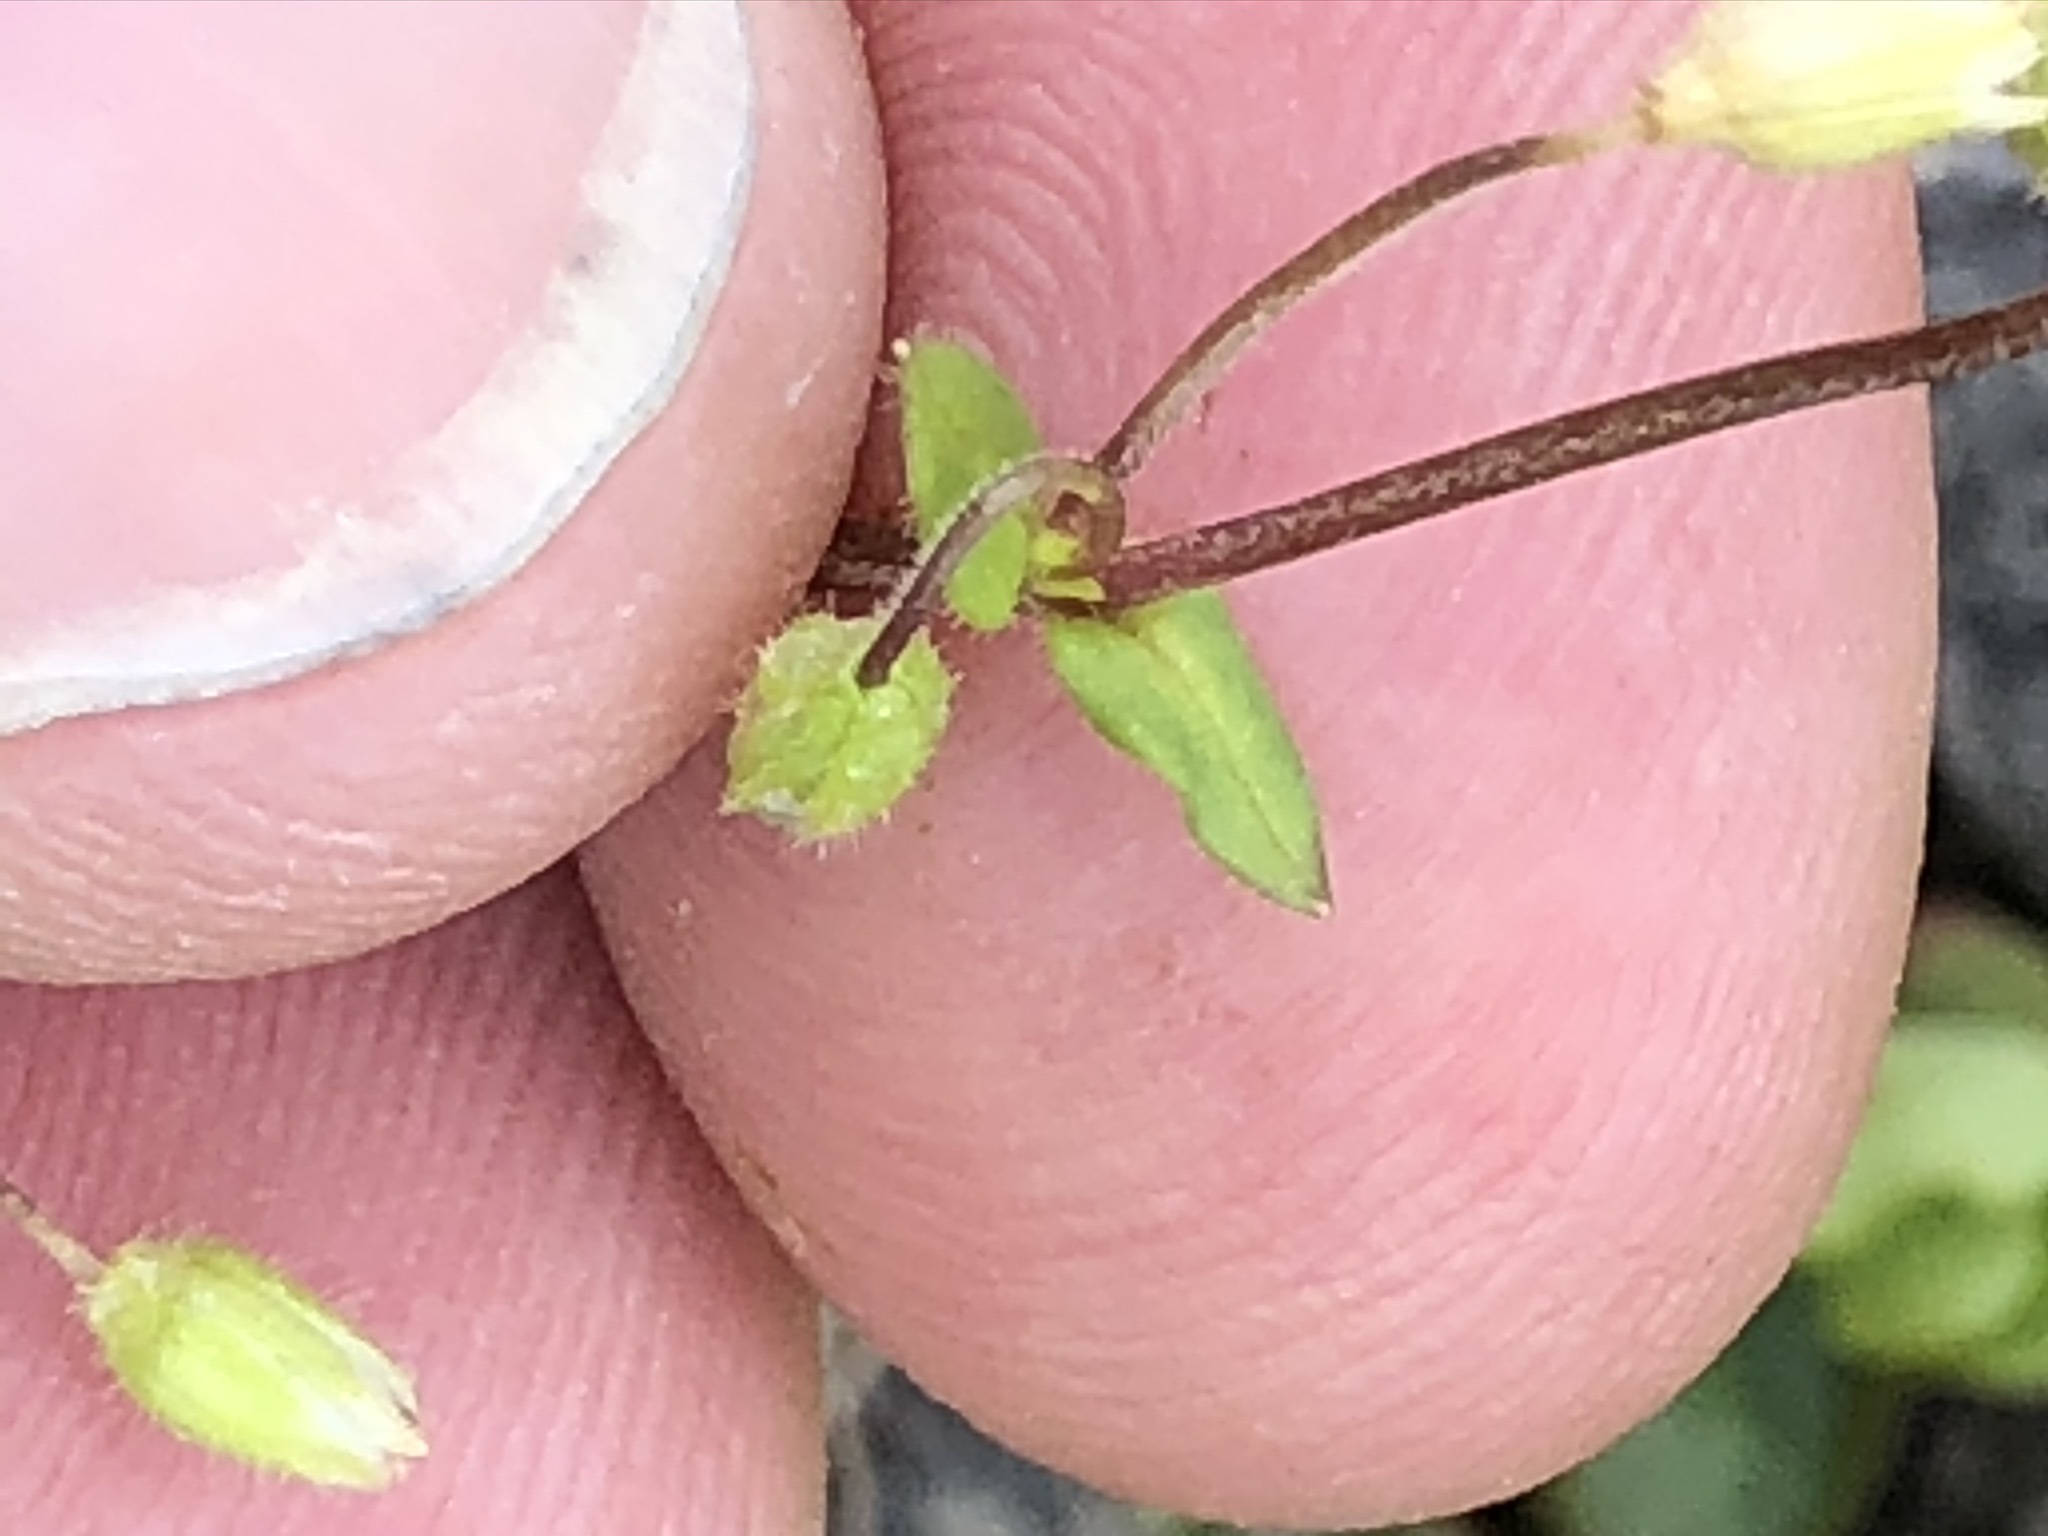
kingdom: Plantae
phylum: Tracheophyta
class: Magnoliopsida
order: Caryophyllales
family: Caryophyllaceae
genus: Stellaria
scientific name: Stellaria media
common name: Common chickweed
